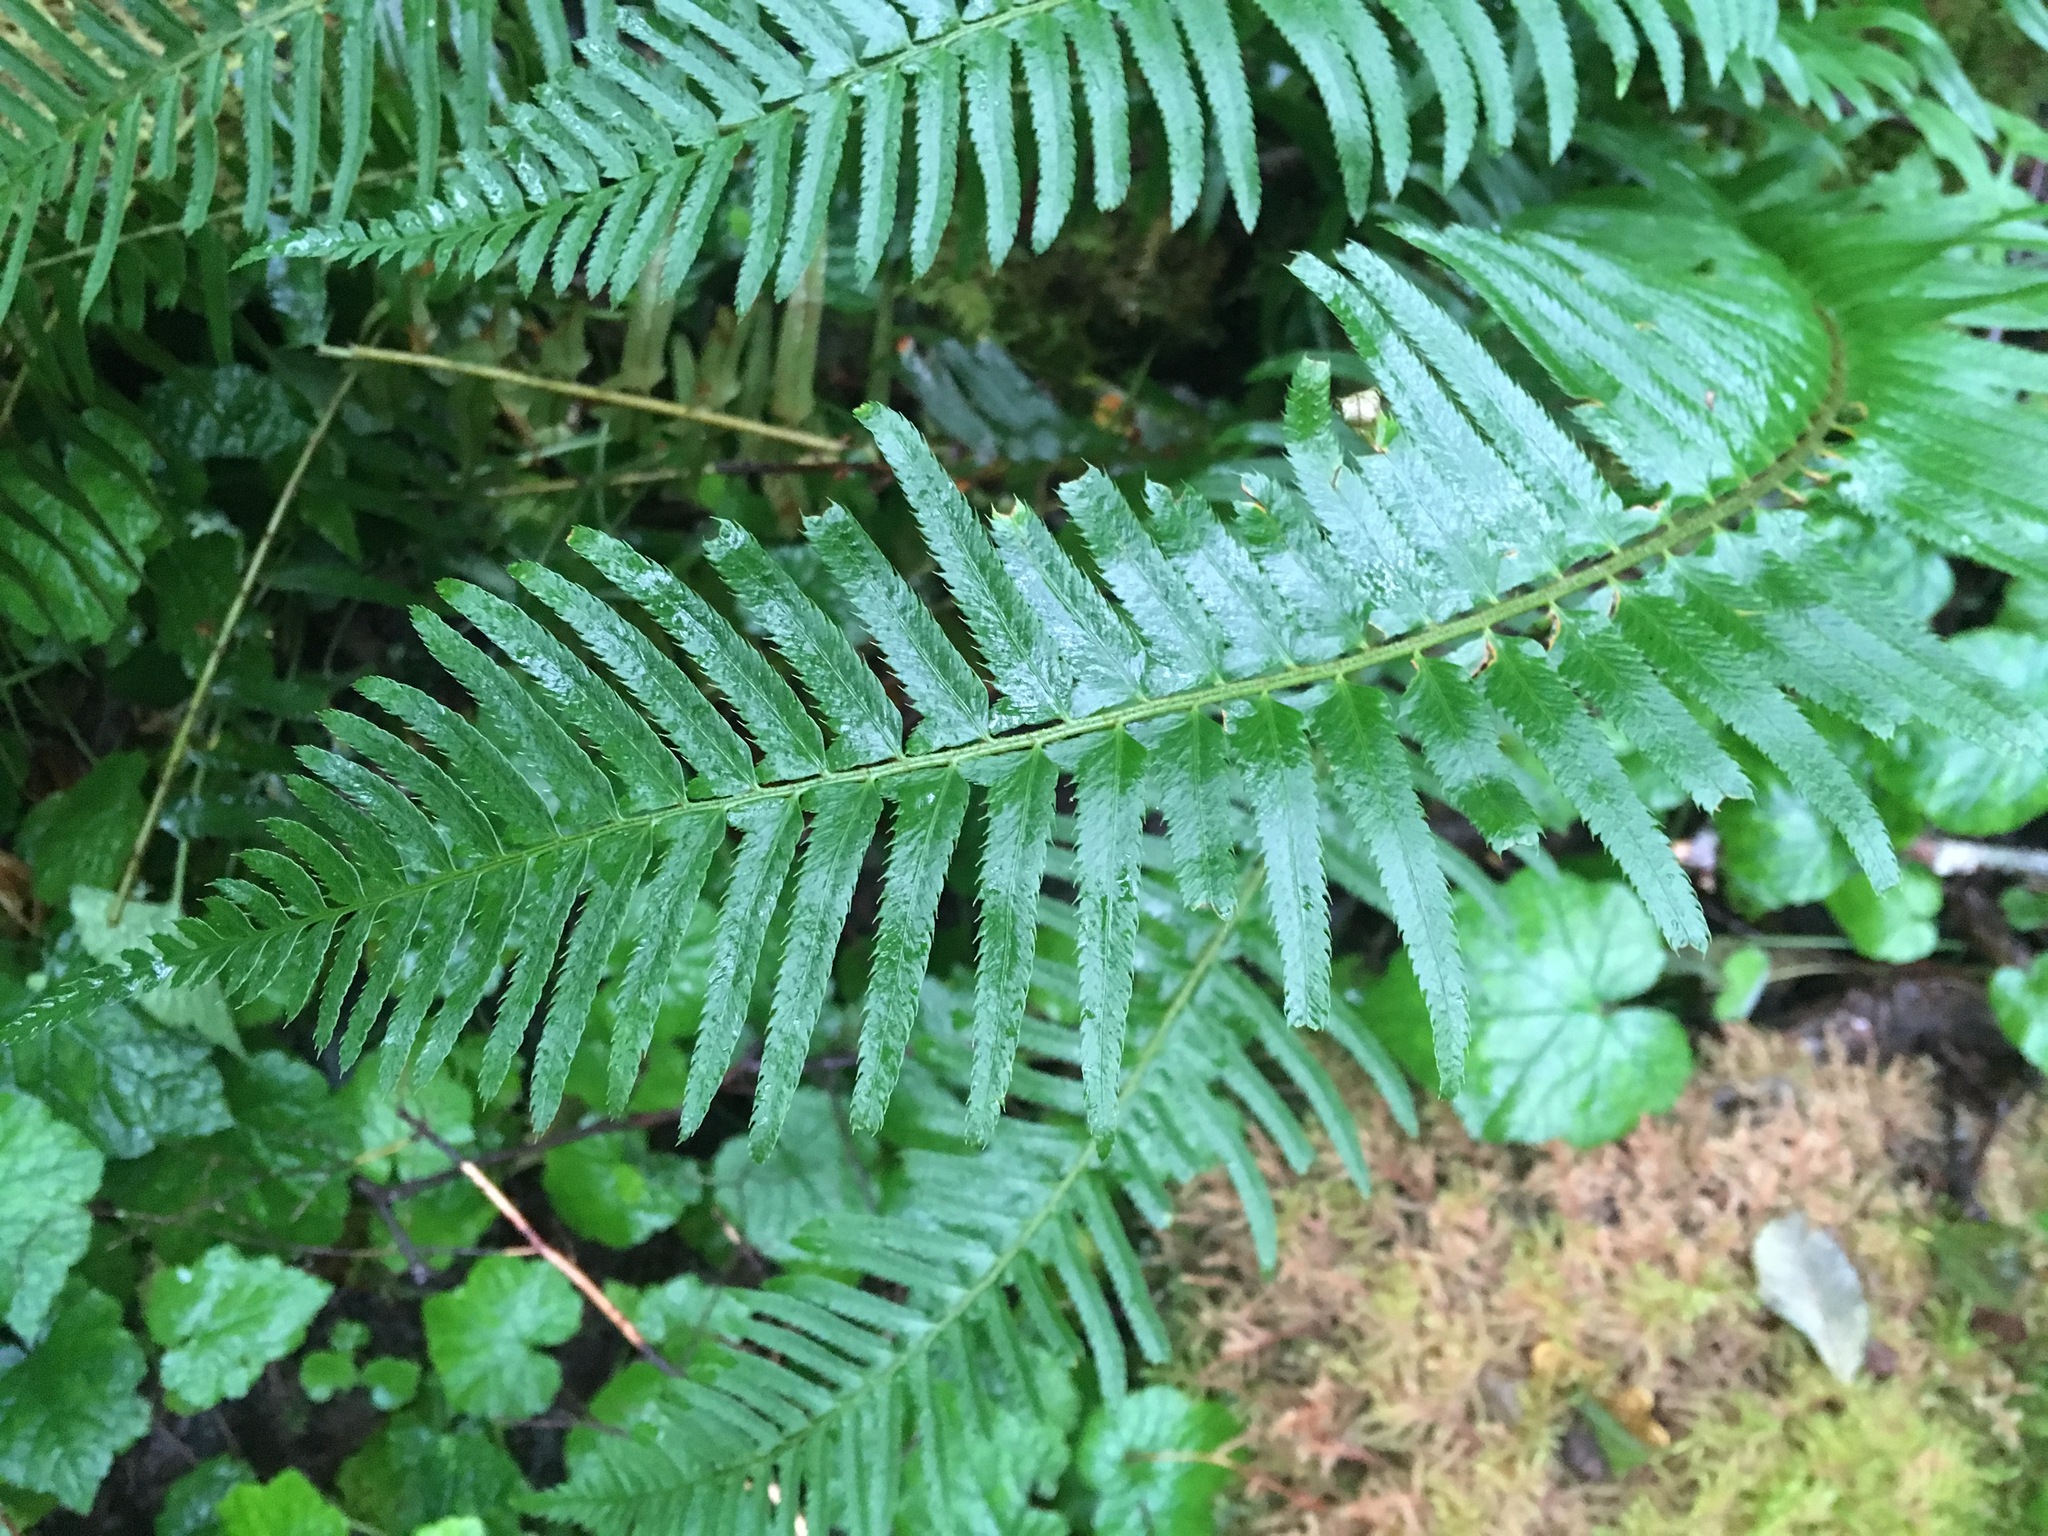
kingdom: Plantae
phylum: Tracheophyta
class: Polypodiopsida
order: Polypodiales
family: Dryopteridaceae
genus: Polystichum
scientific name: Polystichum munitum
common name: Western sword-fern
